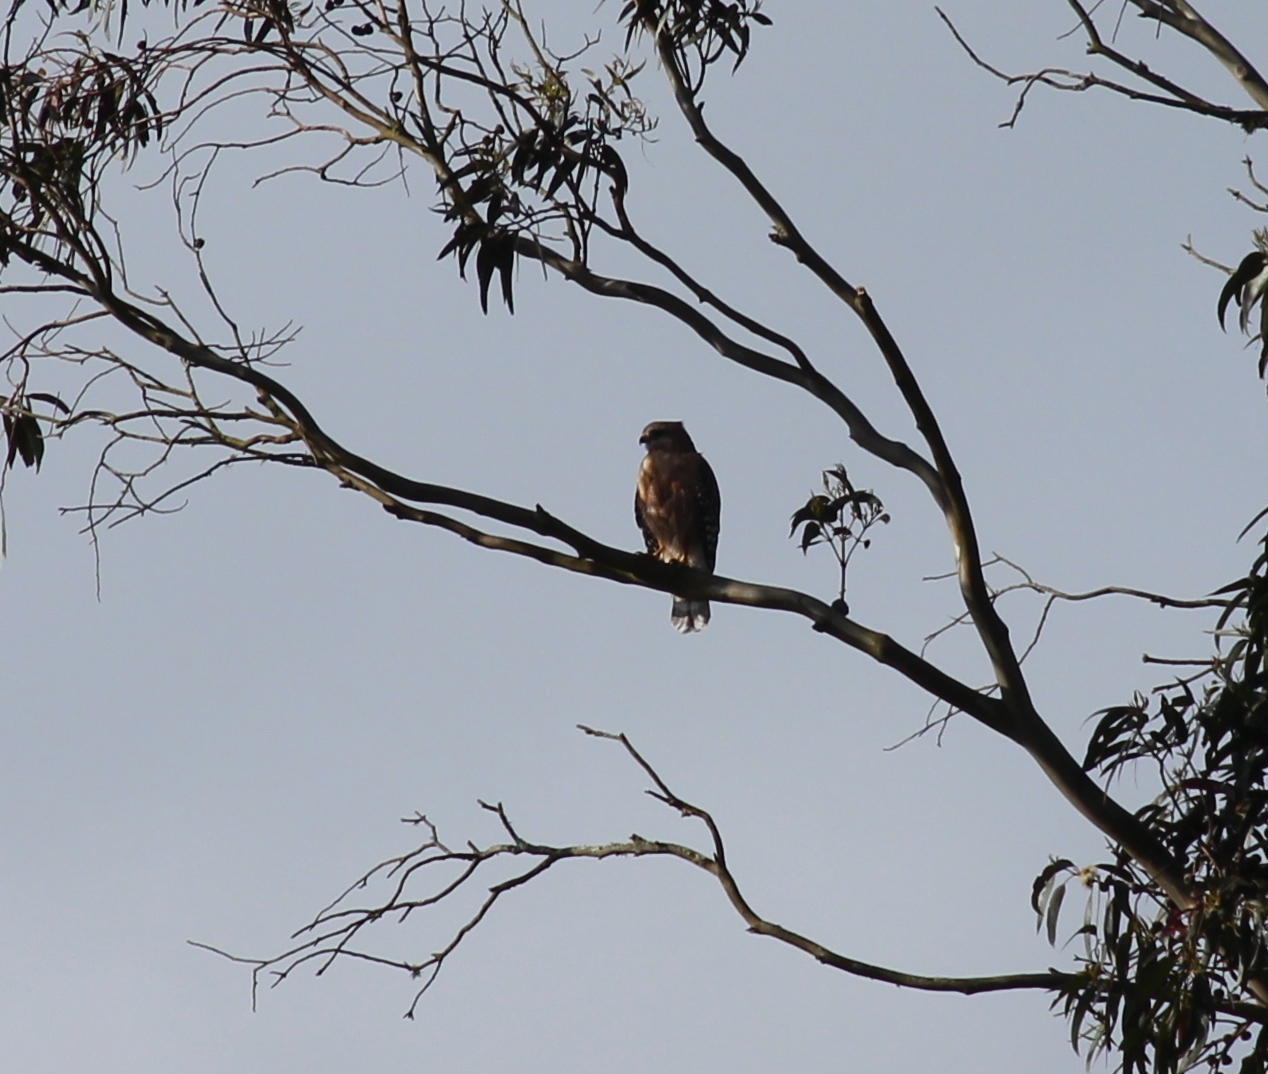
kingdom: Animalia
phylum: Chordata
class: Aves
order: Accipitriformes
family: Accipitridae
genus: Buteo
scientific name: Buteo lineatus
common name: Red-shouldered hawk
